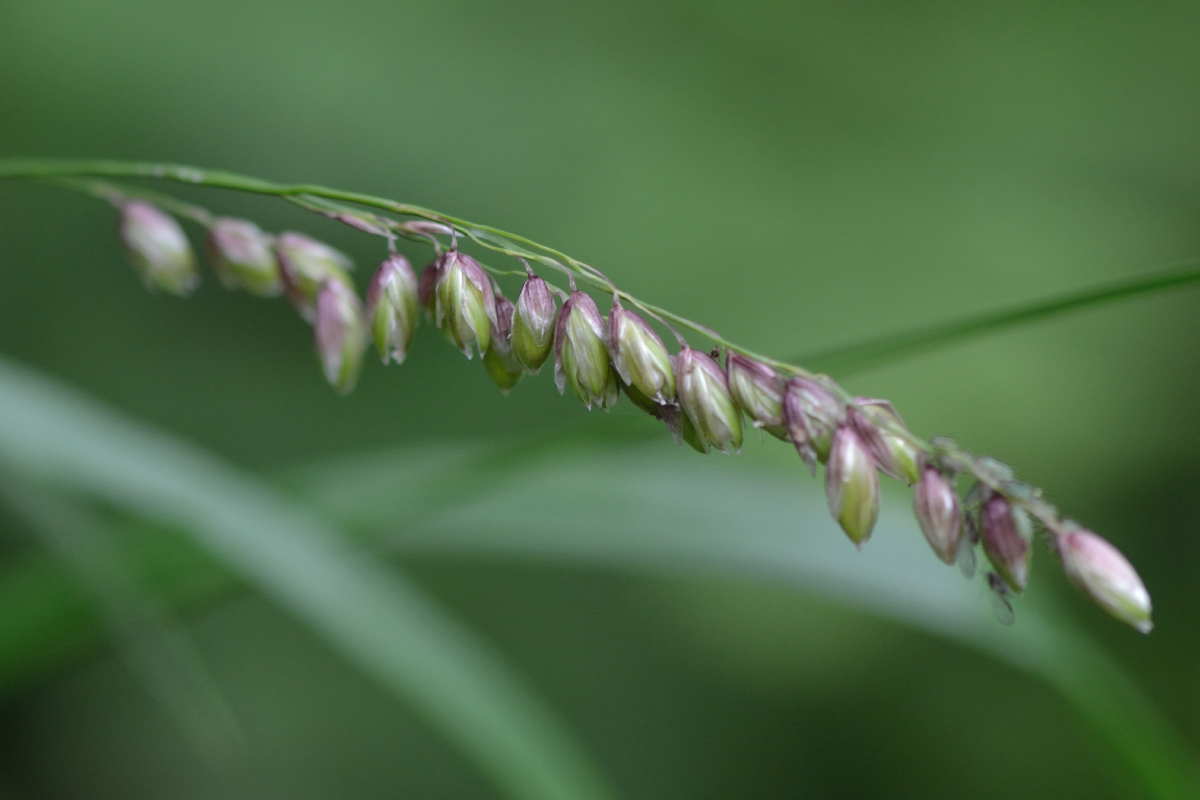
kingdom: Plantae
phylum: Tracheophyta
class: Liliopsida
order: Poales
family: Poaceae
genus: Melica
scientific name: Melica nutans
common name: Mountain melick
